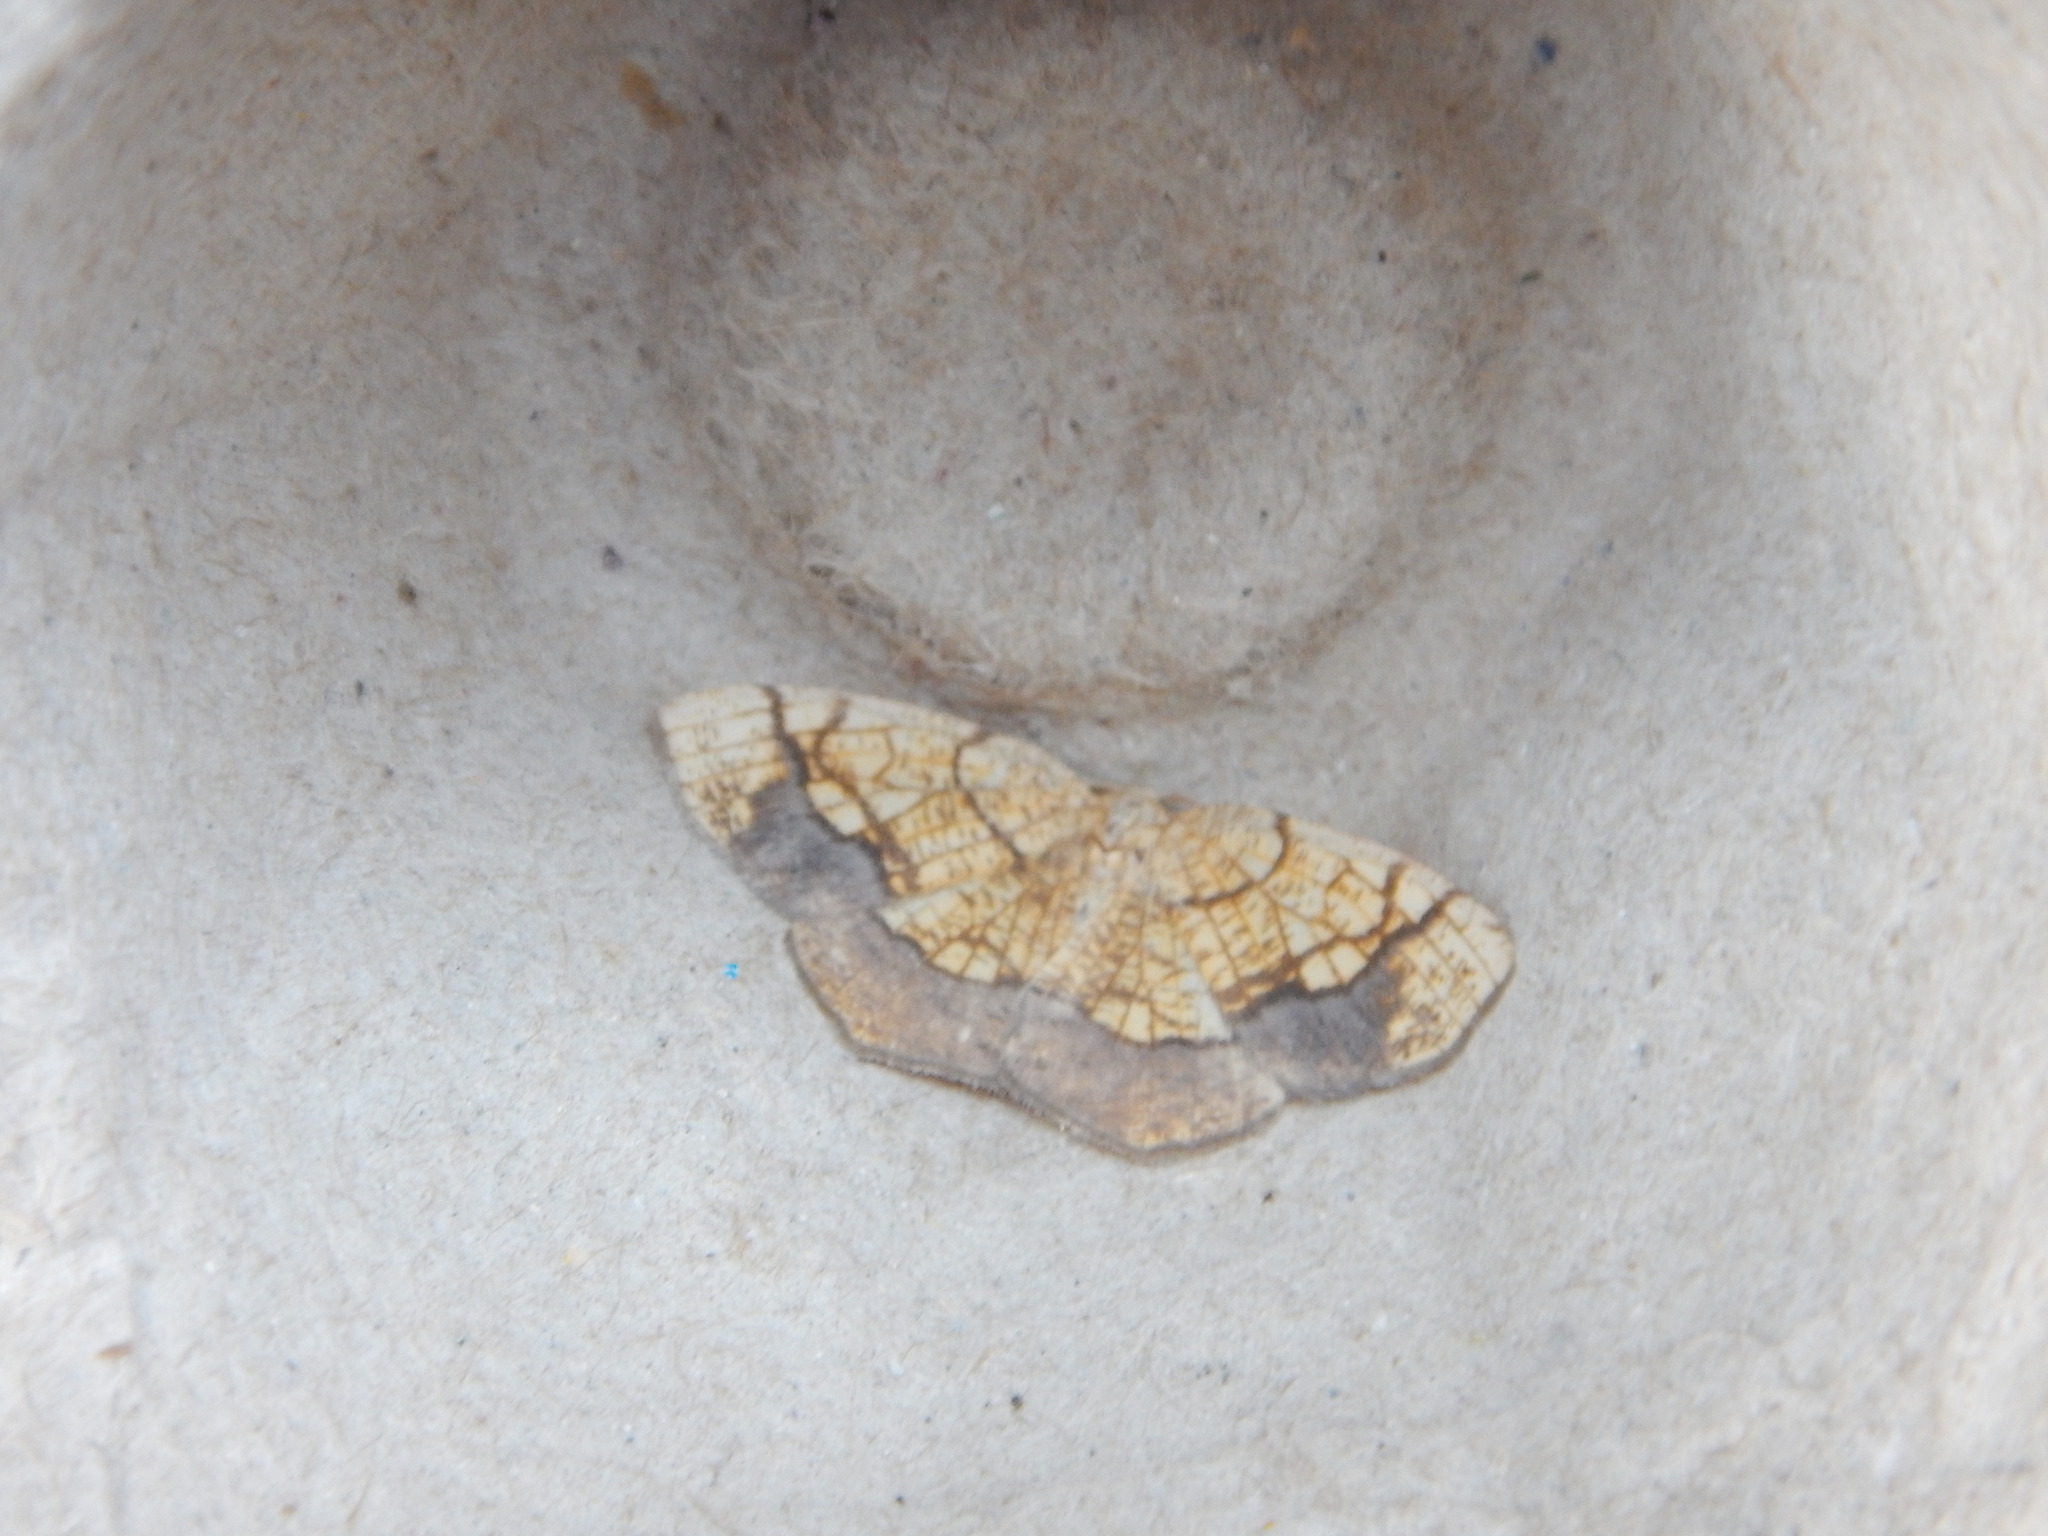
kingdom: Animalia
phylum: Arthropoda
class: Insecta
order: Lepidoptera
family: Geometridae
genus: Nematocampa
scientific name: Nematocampa resistaria
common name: Horned spanworm moth
